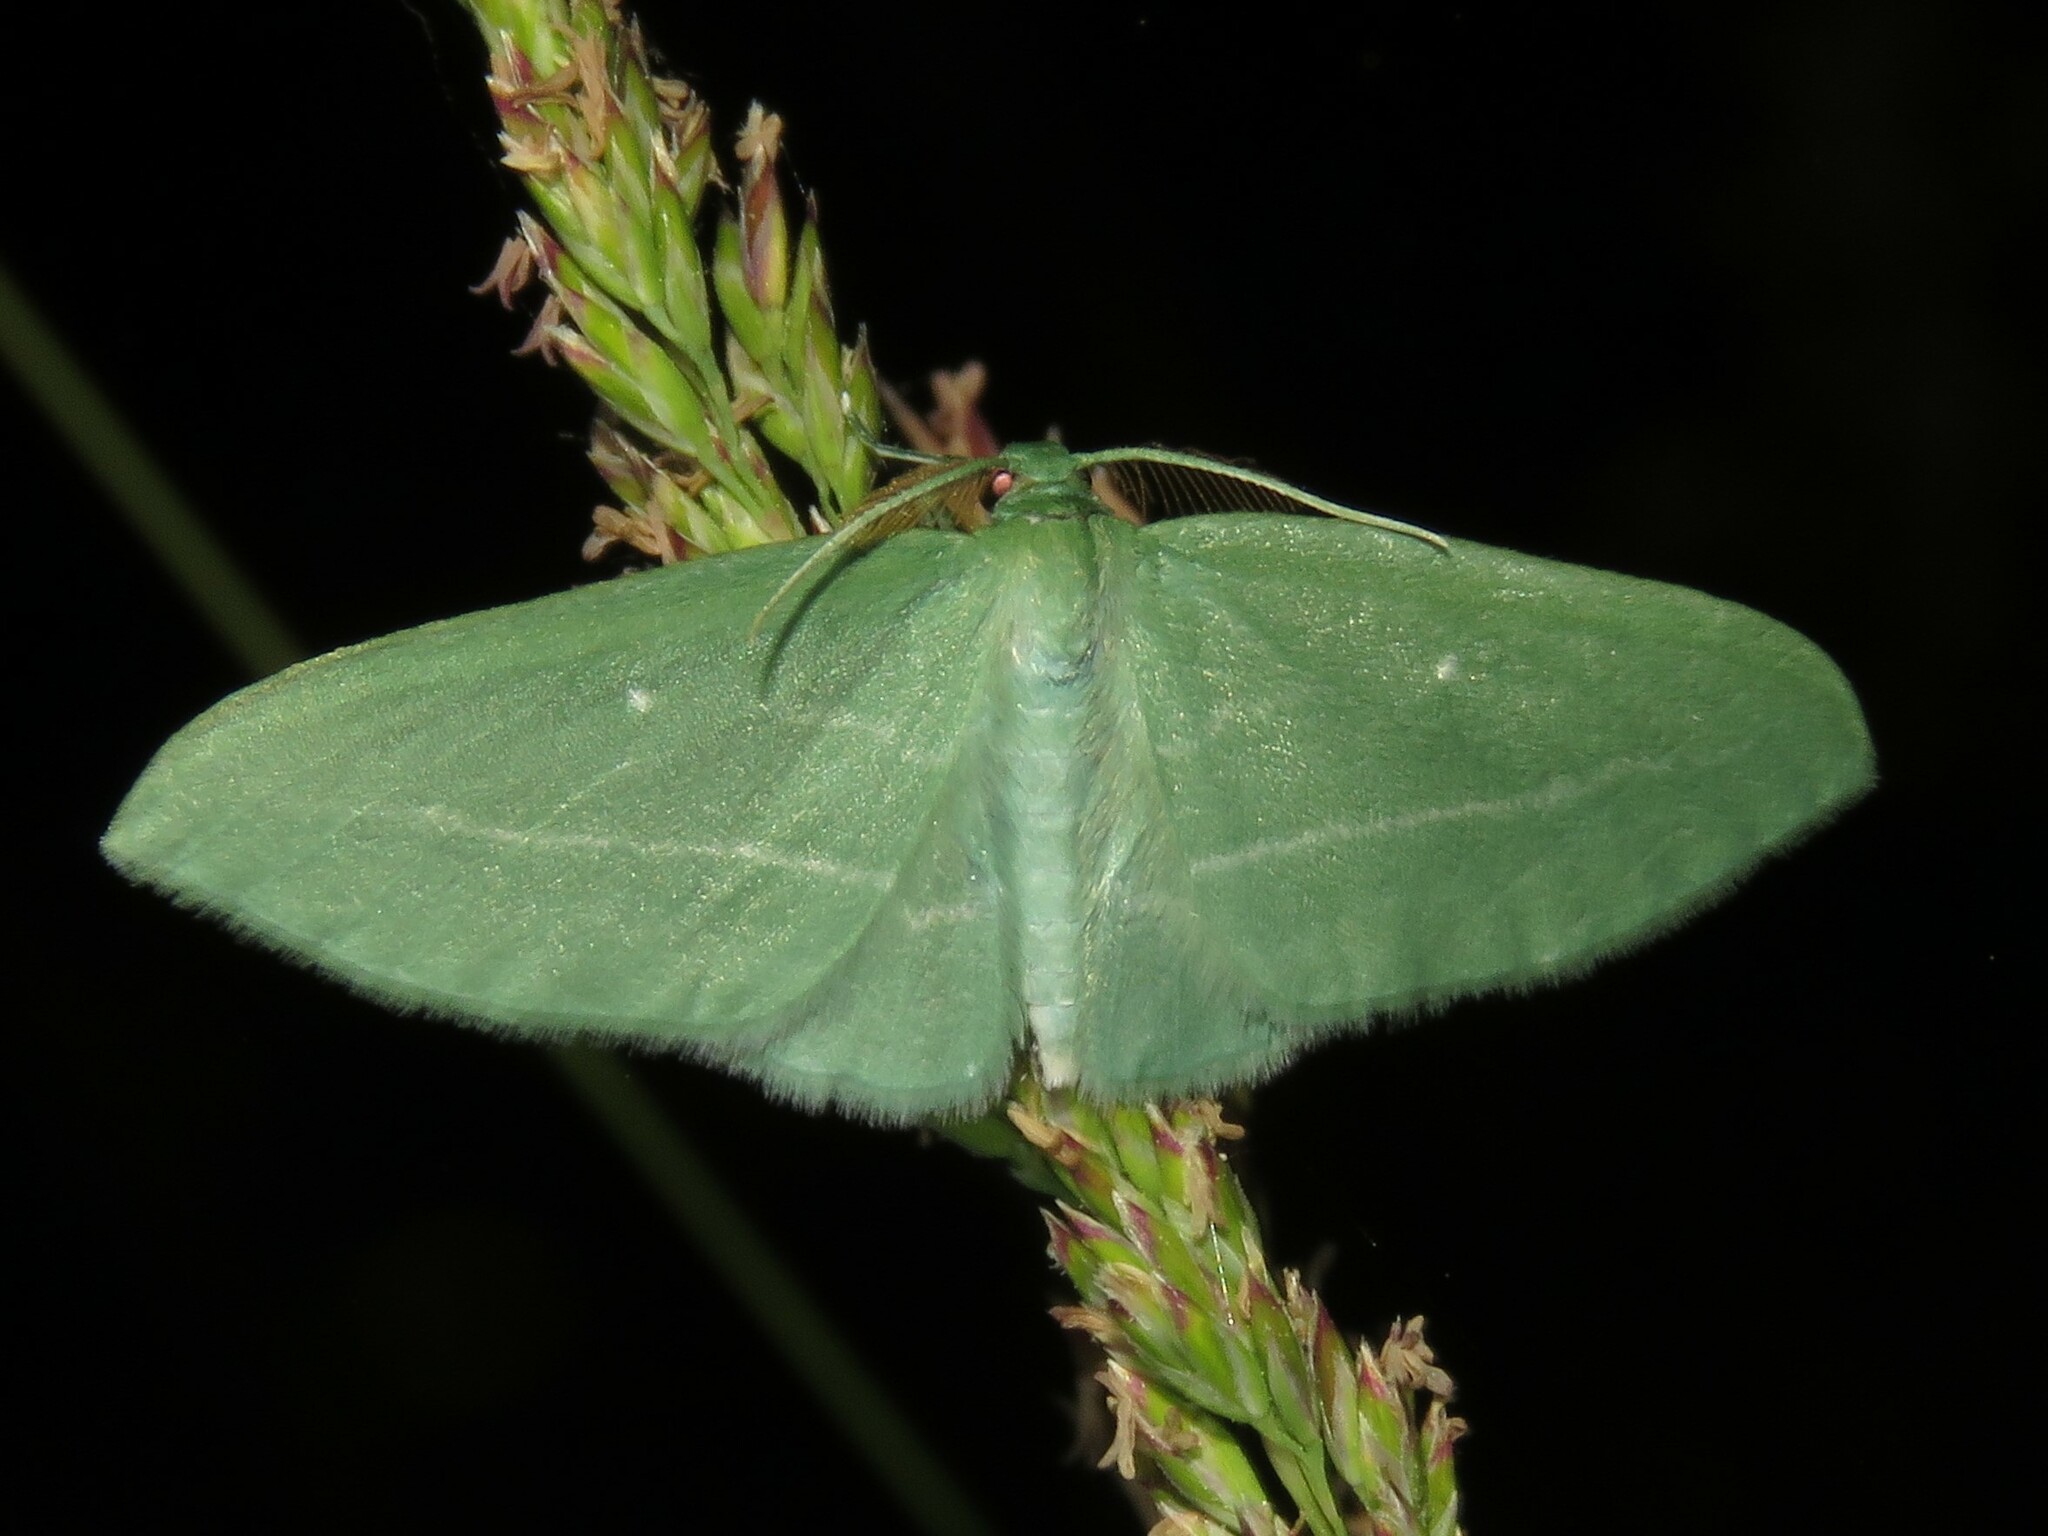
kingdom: Animalia
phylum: Arthropoda
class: Insecta
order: Lepidoptera
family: Geometridae
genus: Dyspteris
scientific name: Dyspteris abortivaria
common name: Bad-wing
